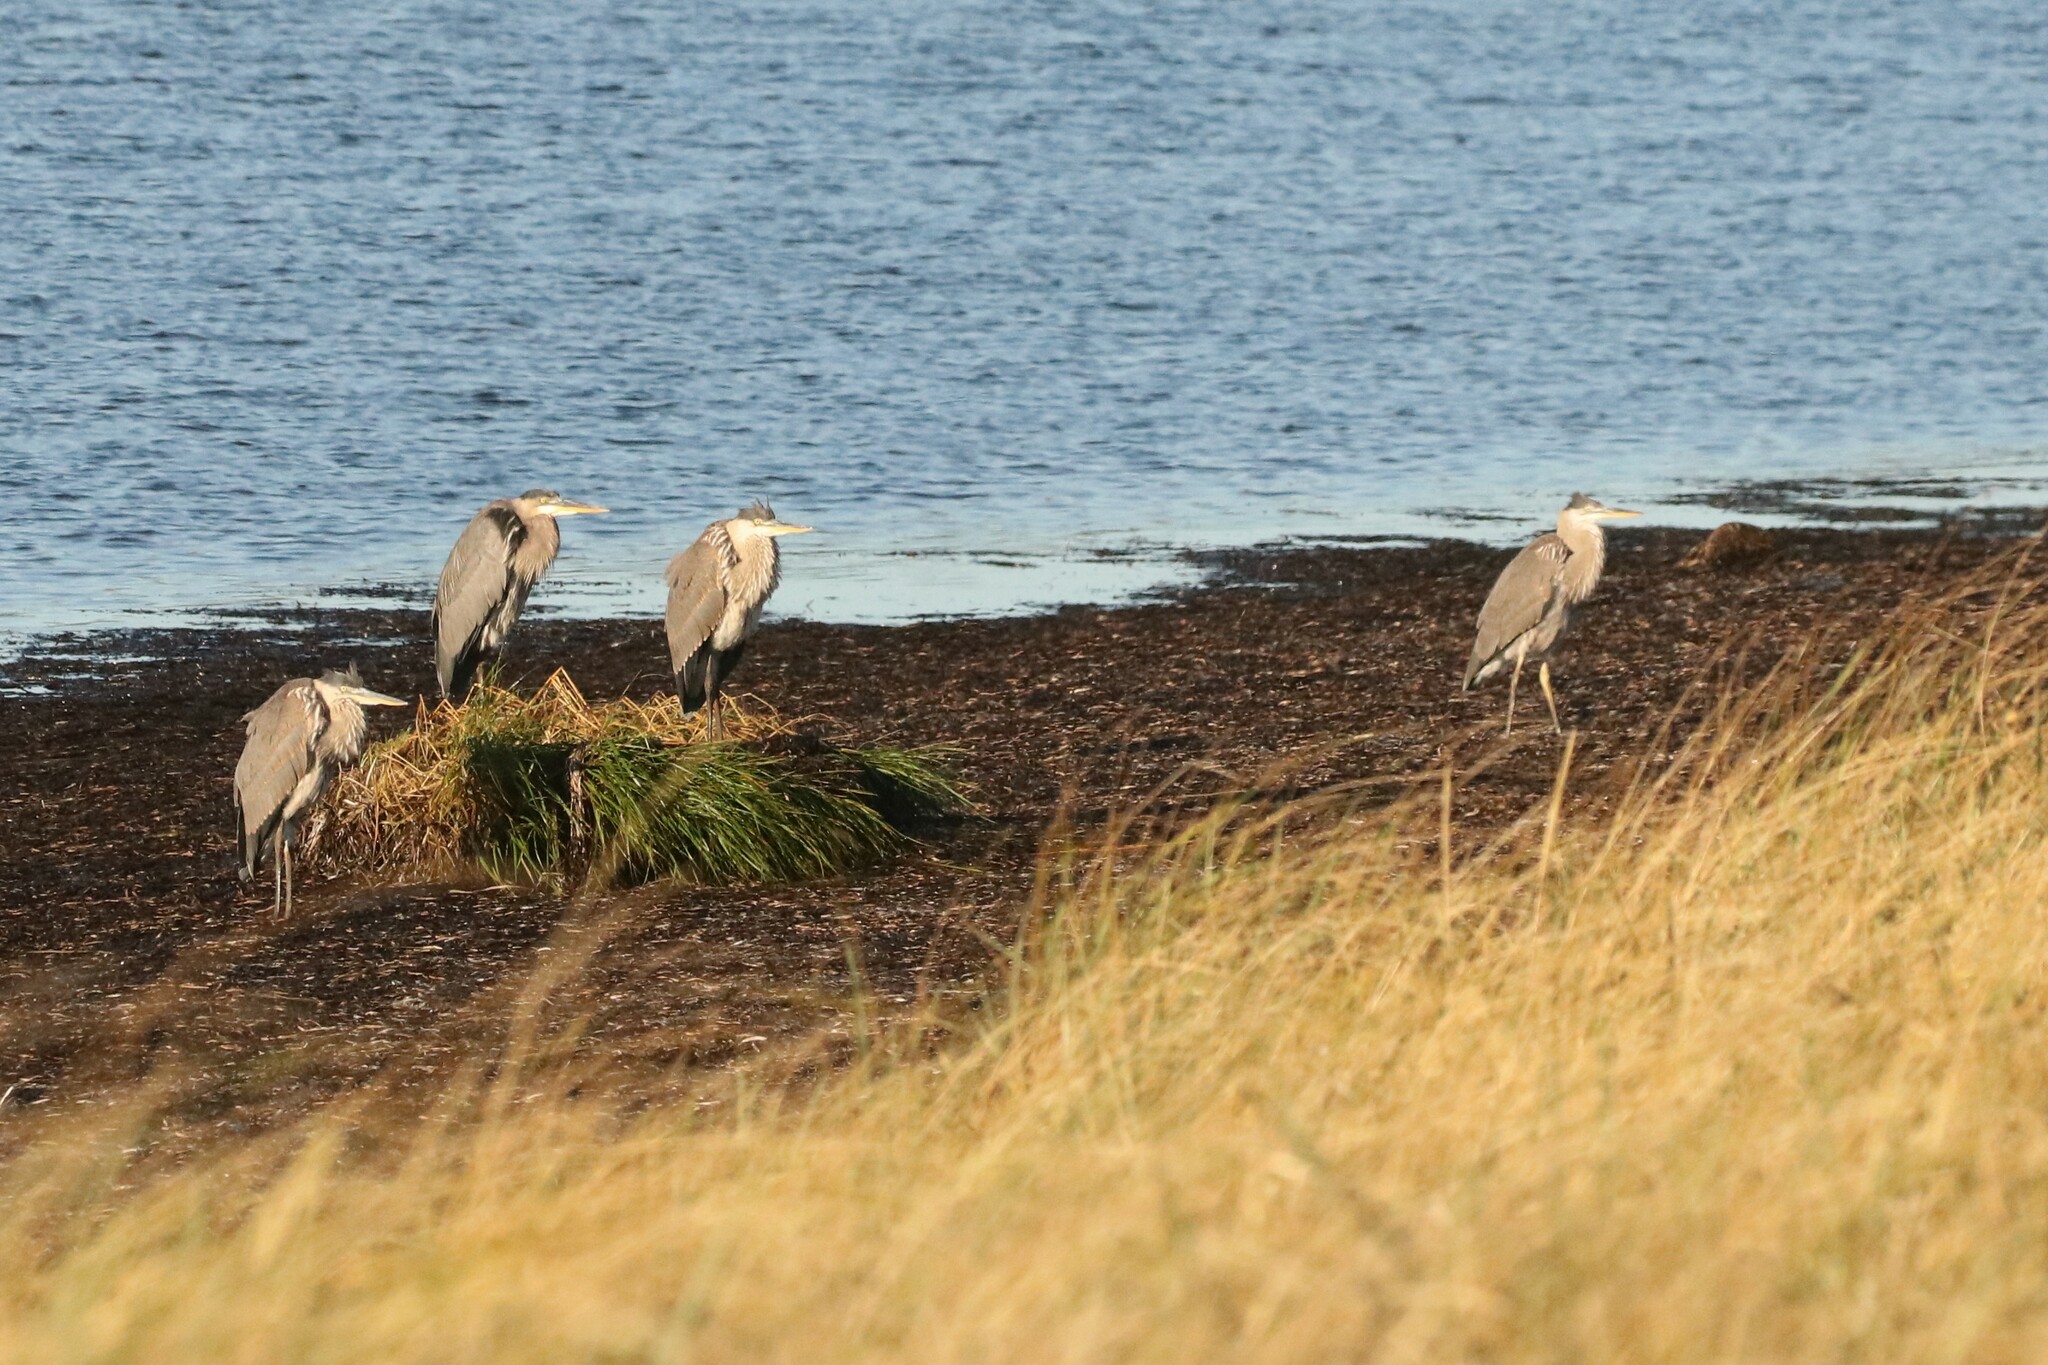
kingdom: Animalia
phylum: Chordata
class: Aves
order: Pelecaniformes
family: Ardeidae
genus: Ardea
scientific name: Ardea herodias
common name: Great blue heron
